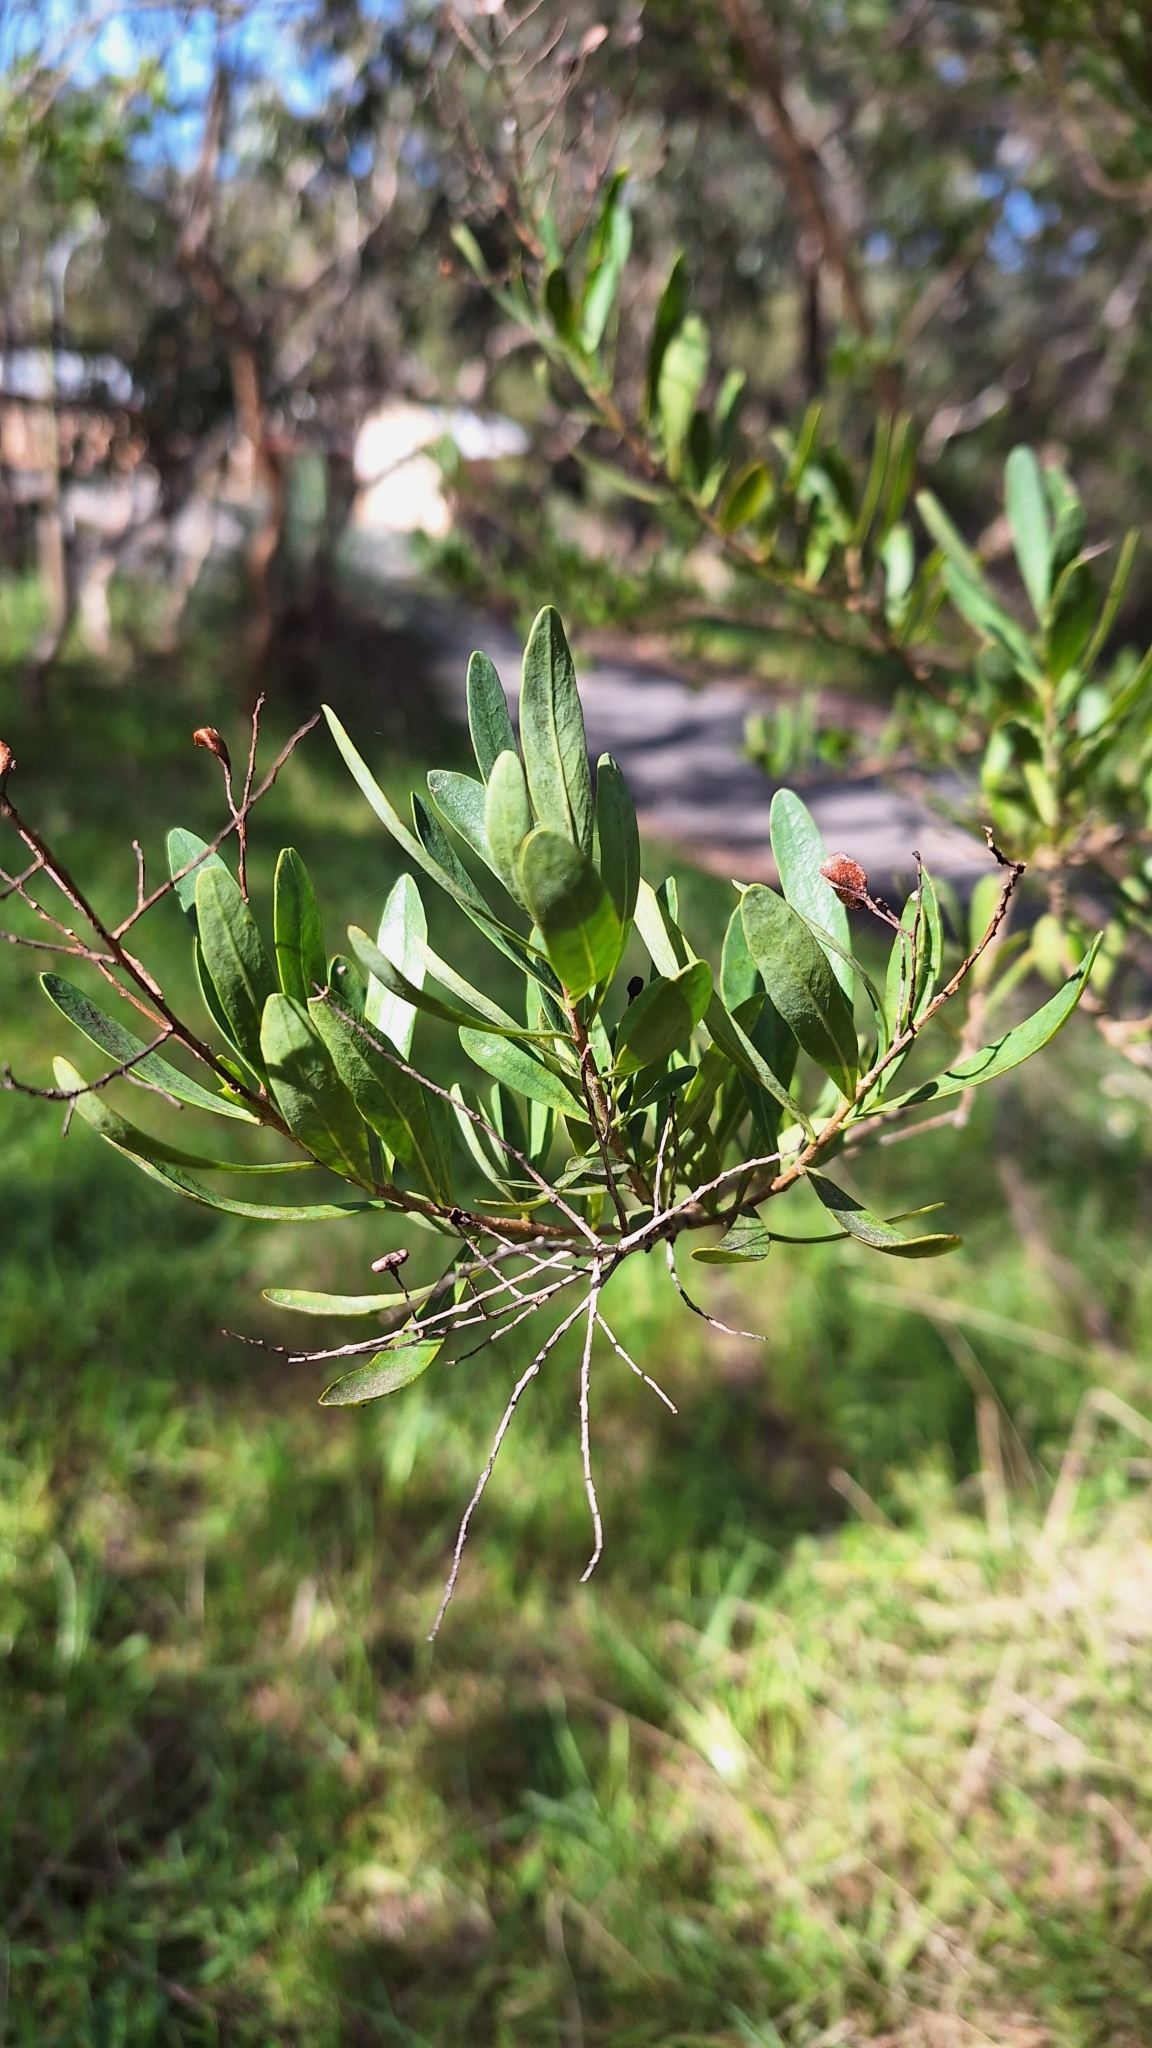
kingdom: Plantae
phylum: Tracheophyta
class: Magnoliopsida
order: Apiales
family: Pittosporaceae
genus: Bursaria
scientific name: Bursaria spinosa
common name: Australian blackthorn
